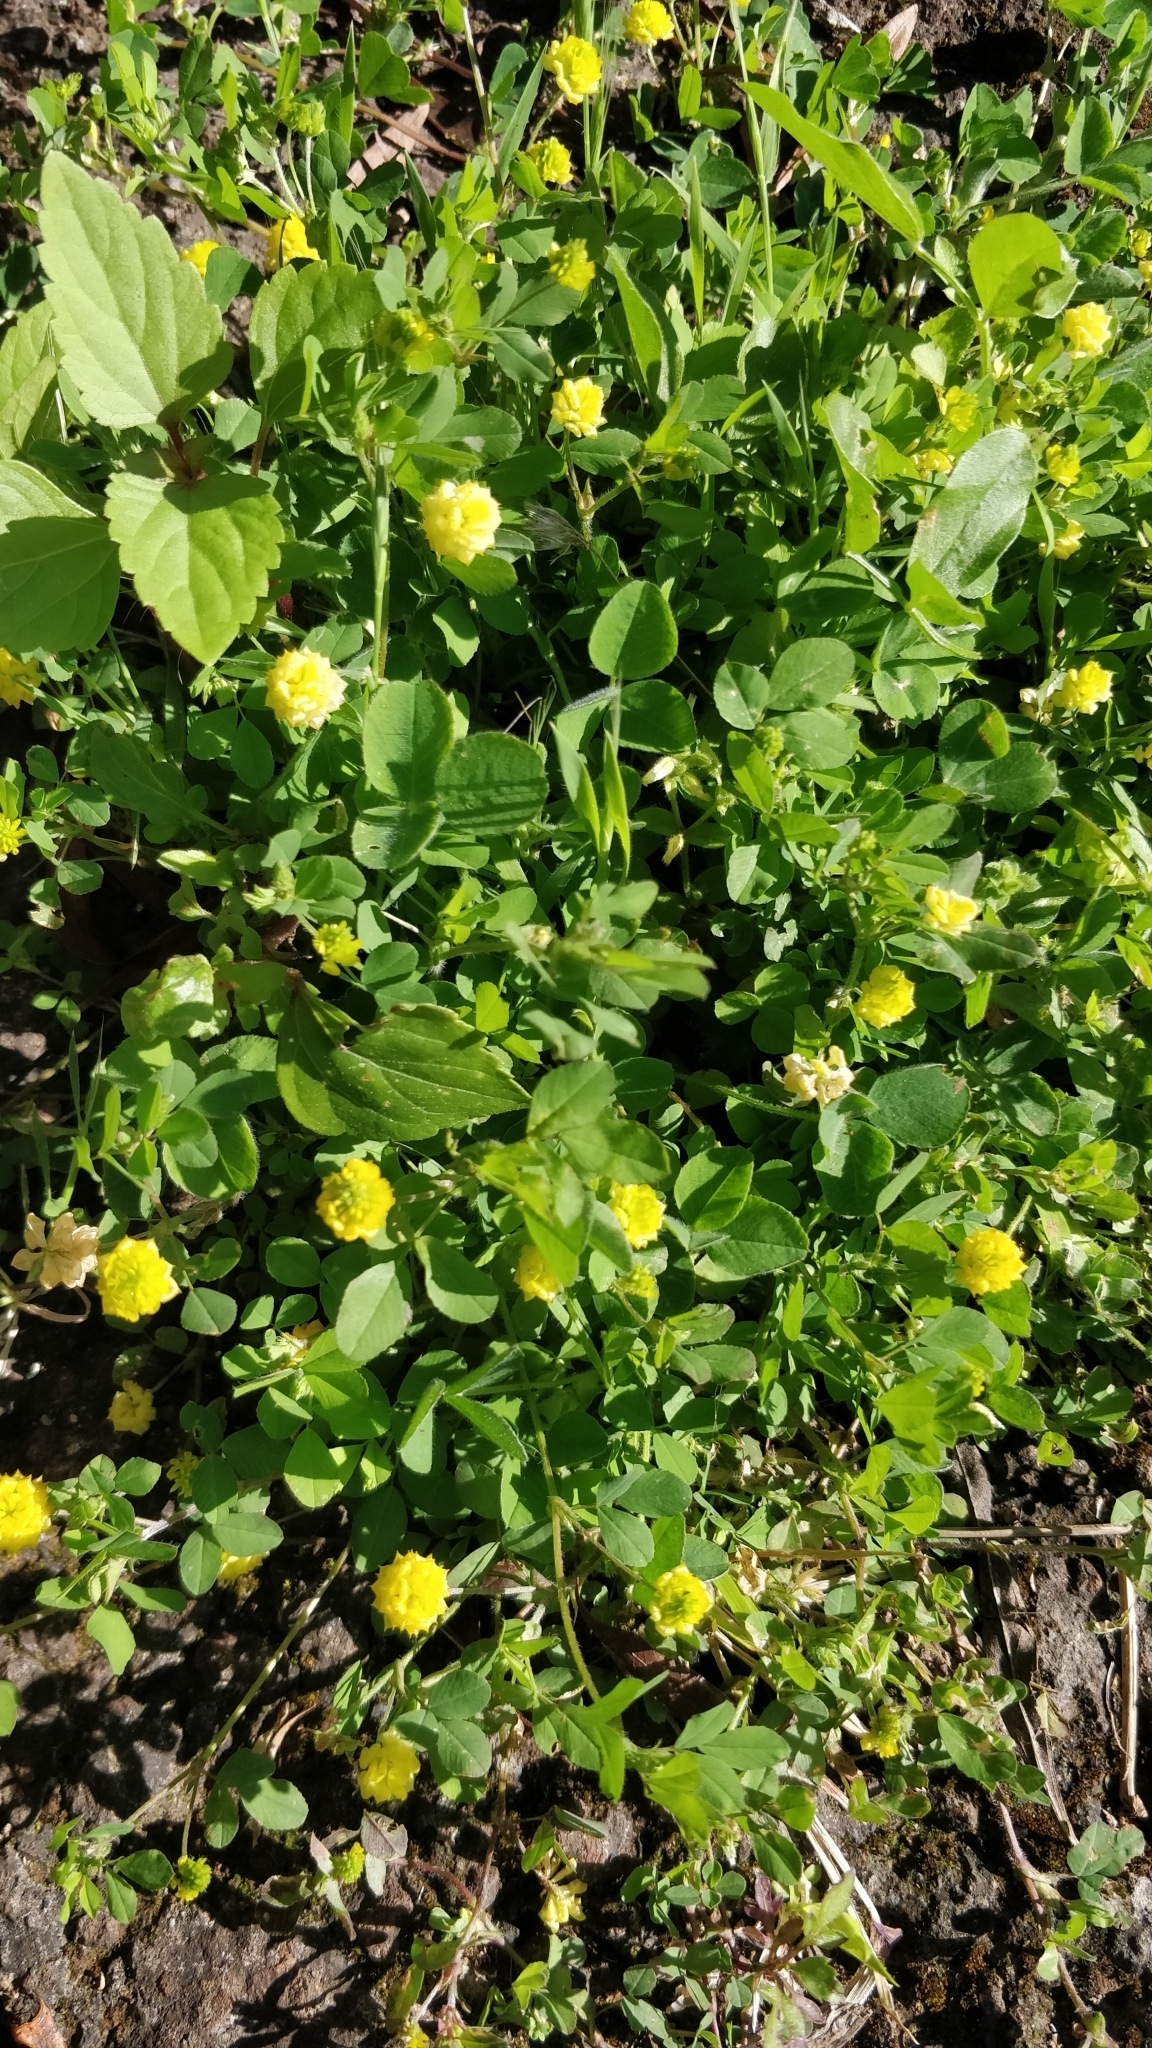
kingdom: Plantae
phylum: Tracheophyta
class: Magnoliopsida
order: Fabales
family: Fabaceae
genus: Trifolium
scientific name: Trifolium campestre
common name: Field clover
